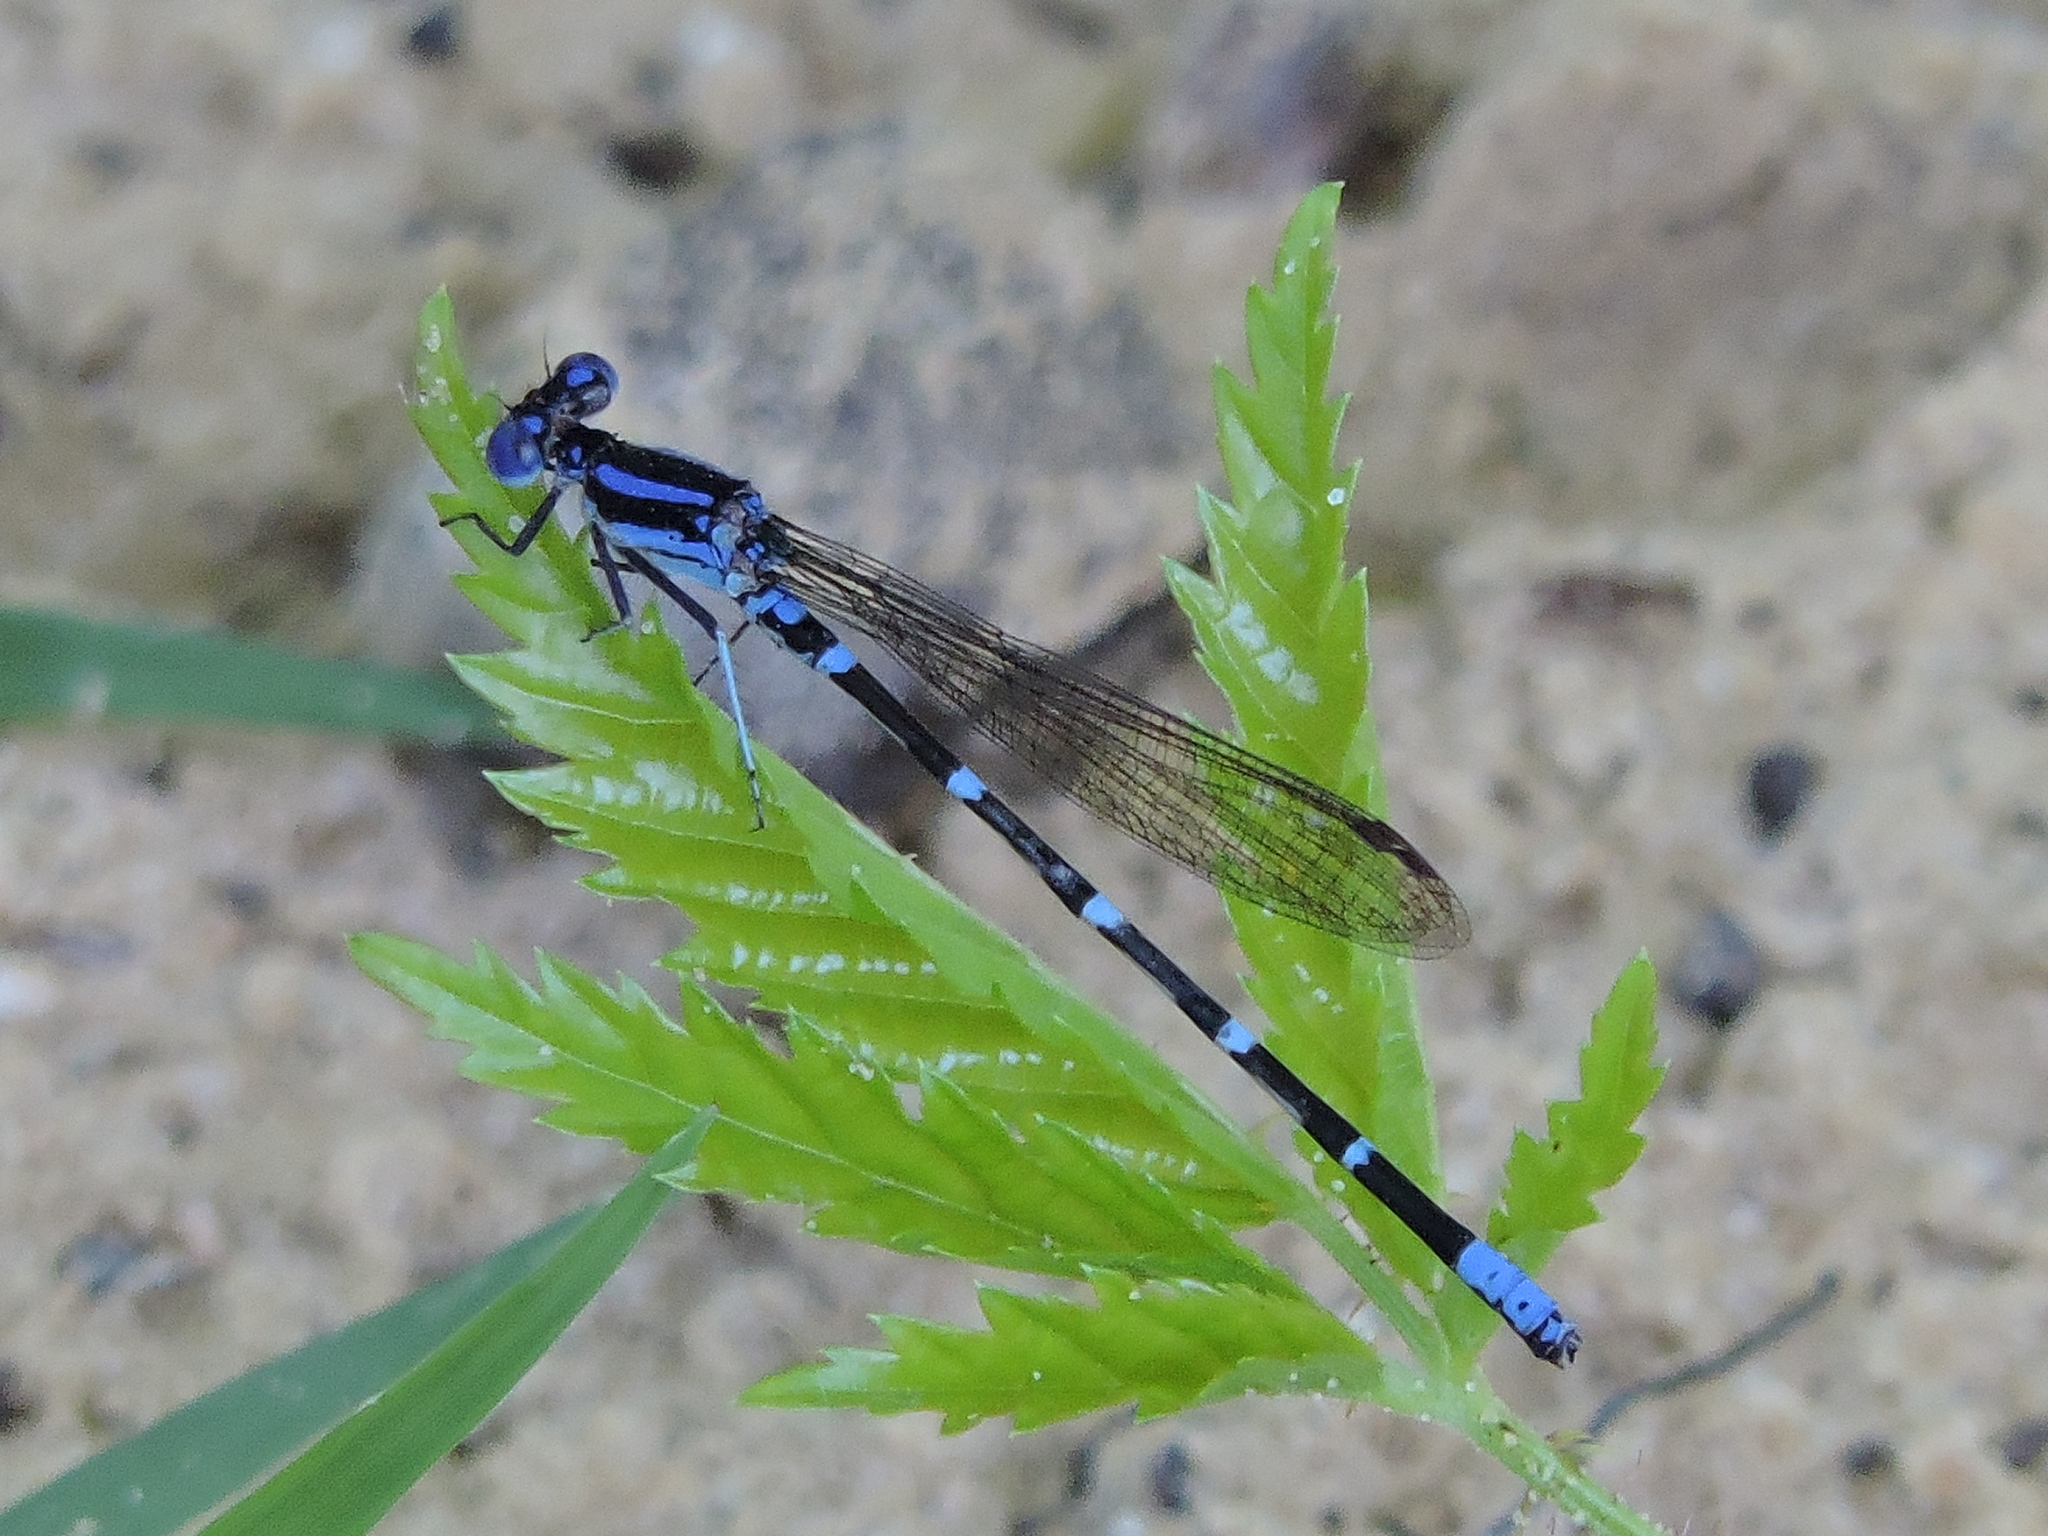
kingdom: Animalia
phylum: Arthropoda
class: Insecta
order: Odonata
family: Coenagrionidae
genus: Argia
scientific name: Argia sedula
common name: Blue-ringed dancer
